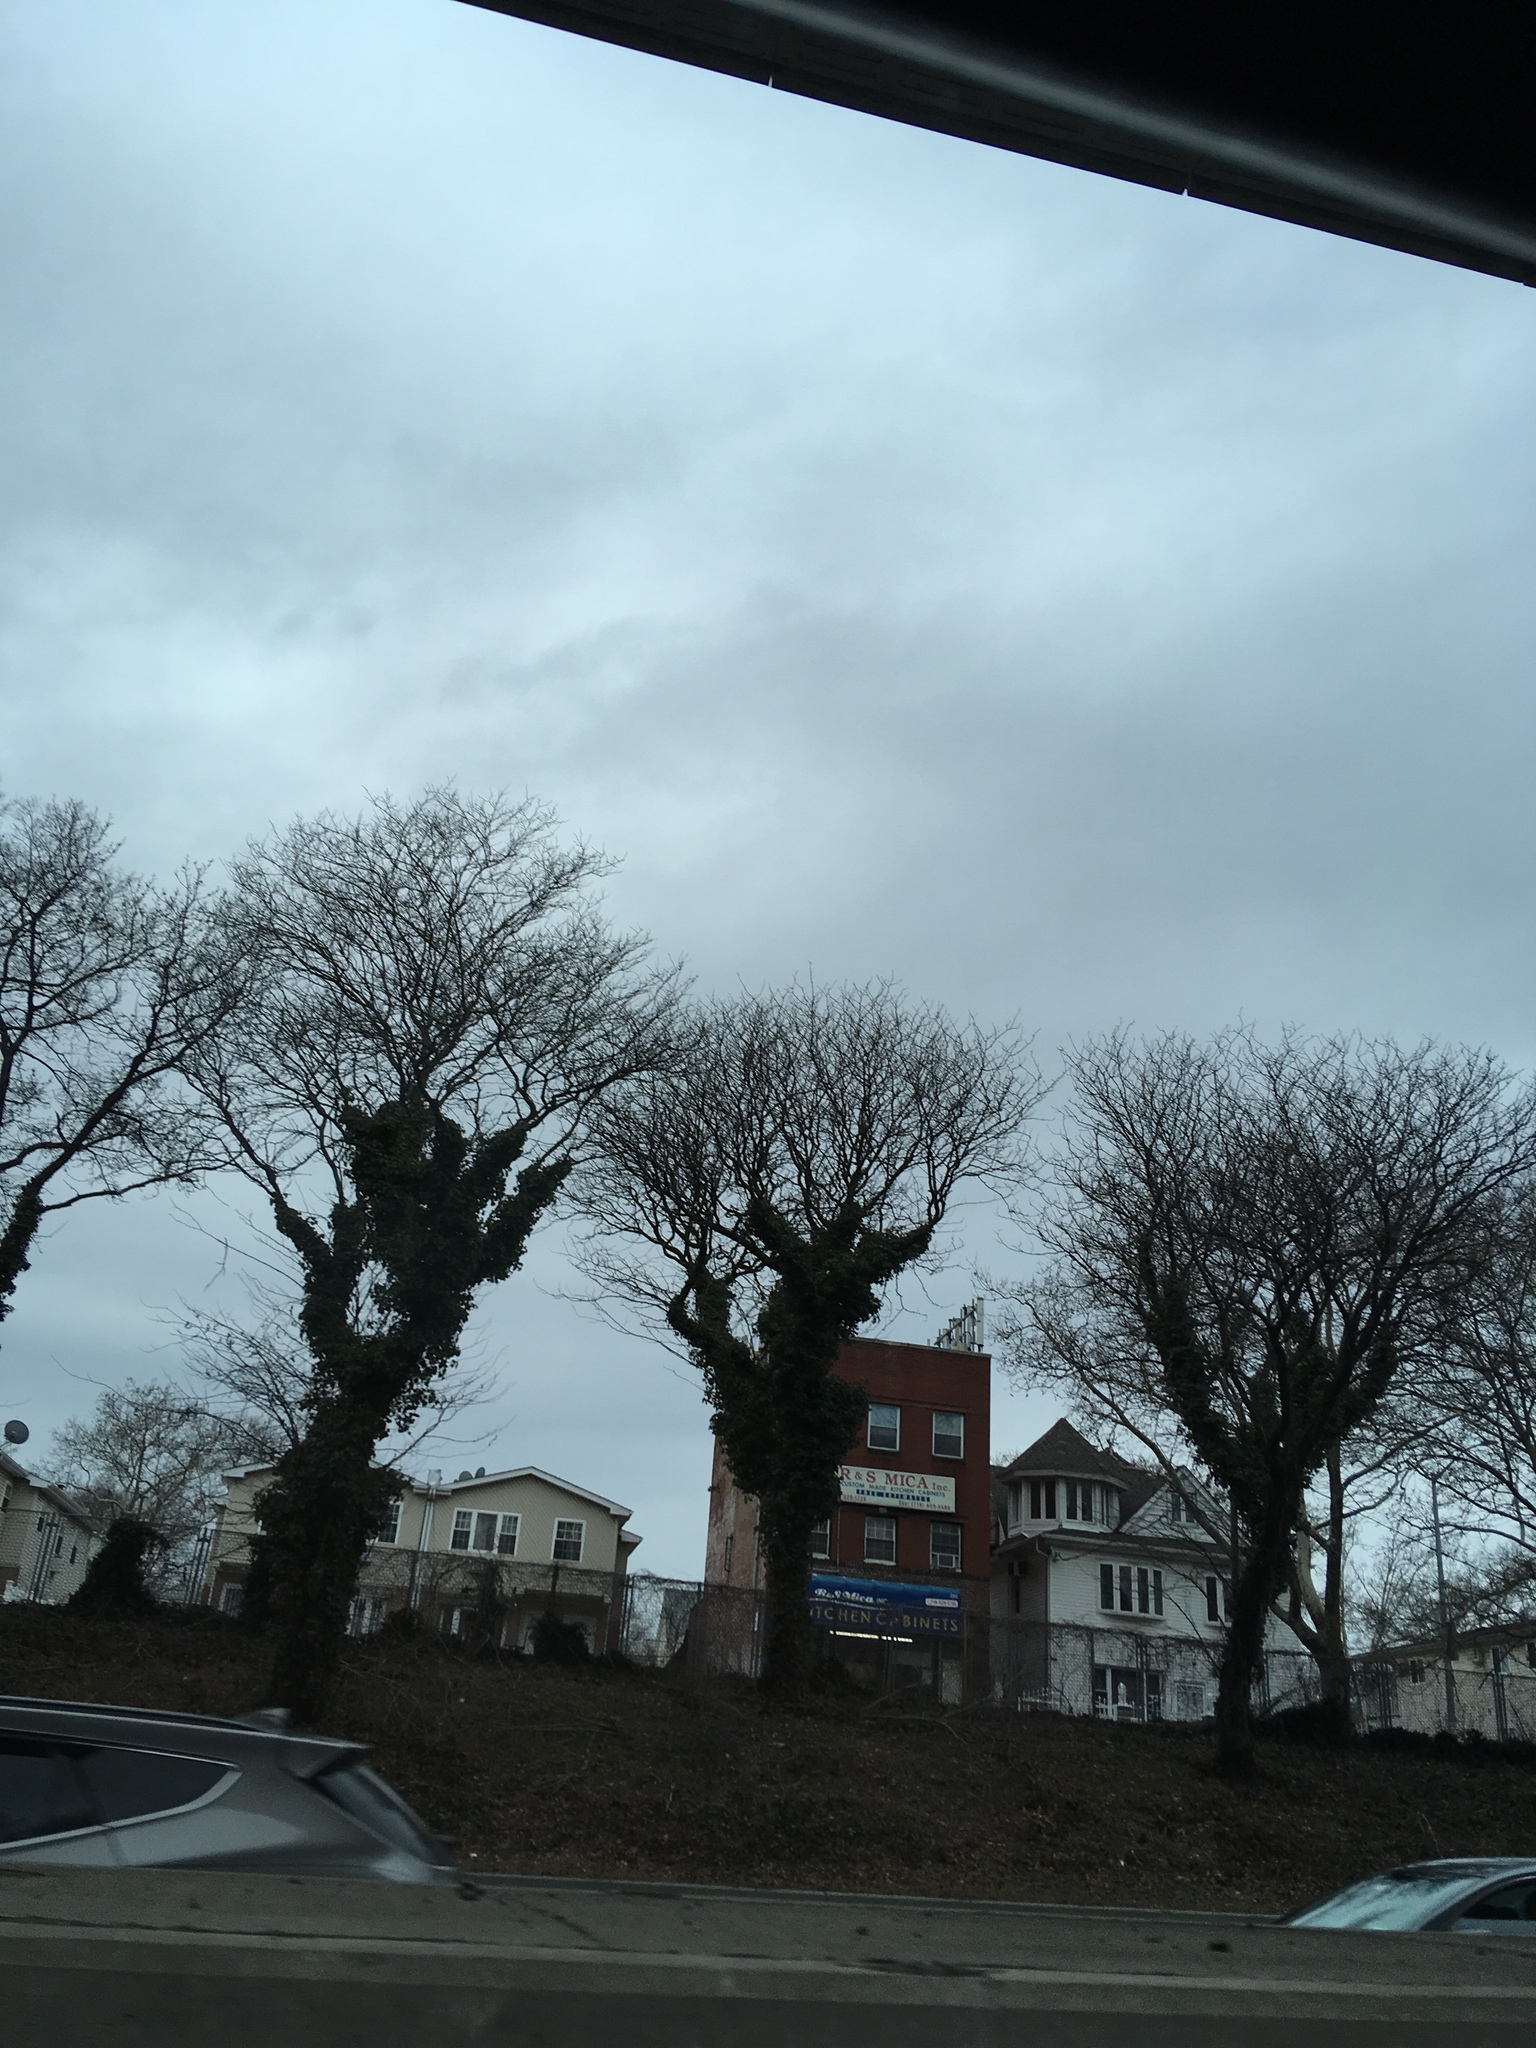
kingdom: Plantae
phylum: Tracheophyta
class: Magnoliopsida
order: Apiales
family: Araliaceae
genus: Hedera
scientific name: Hedera helix
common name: Ivy
